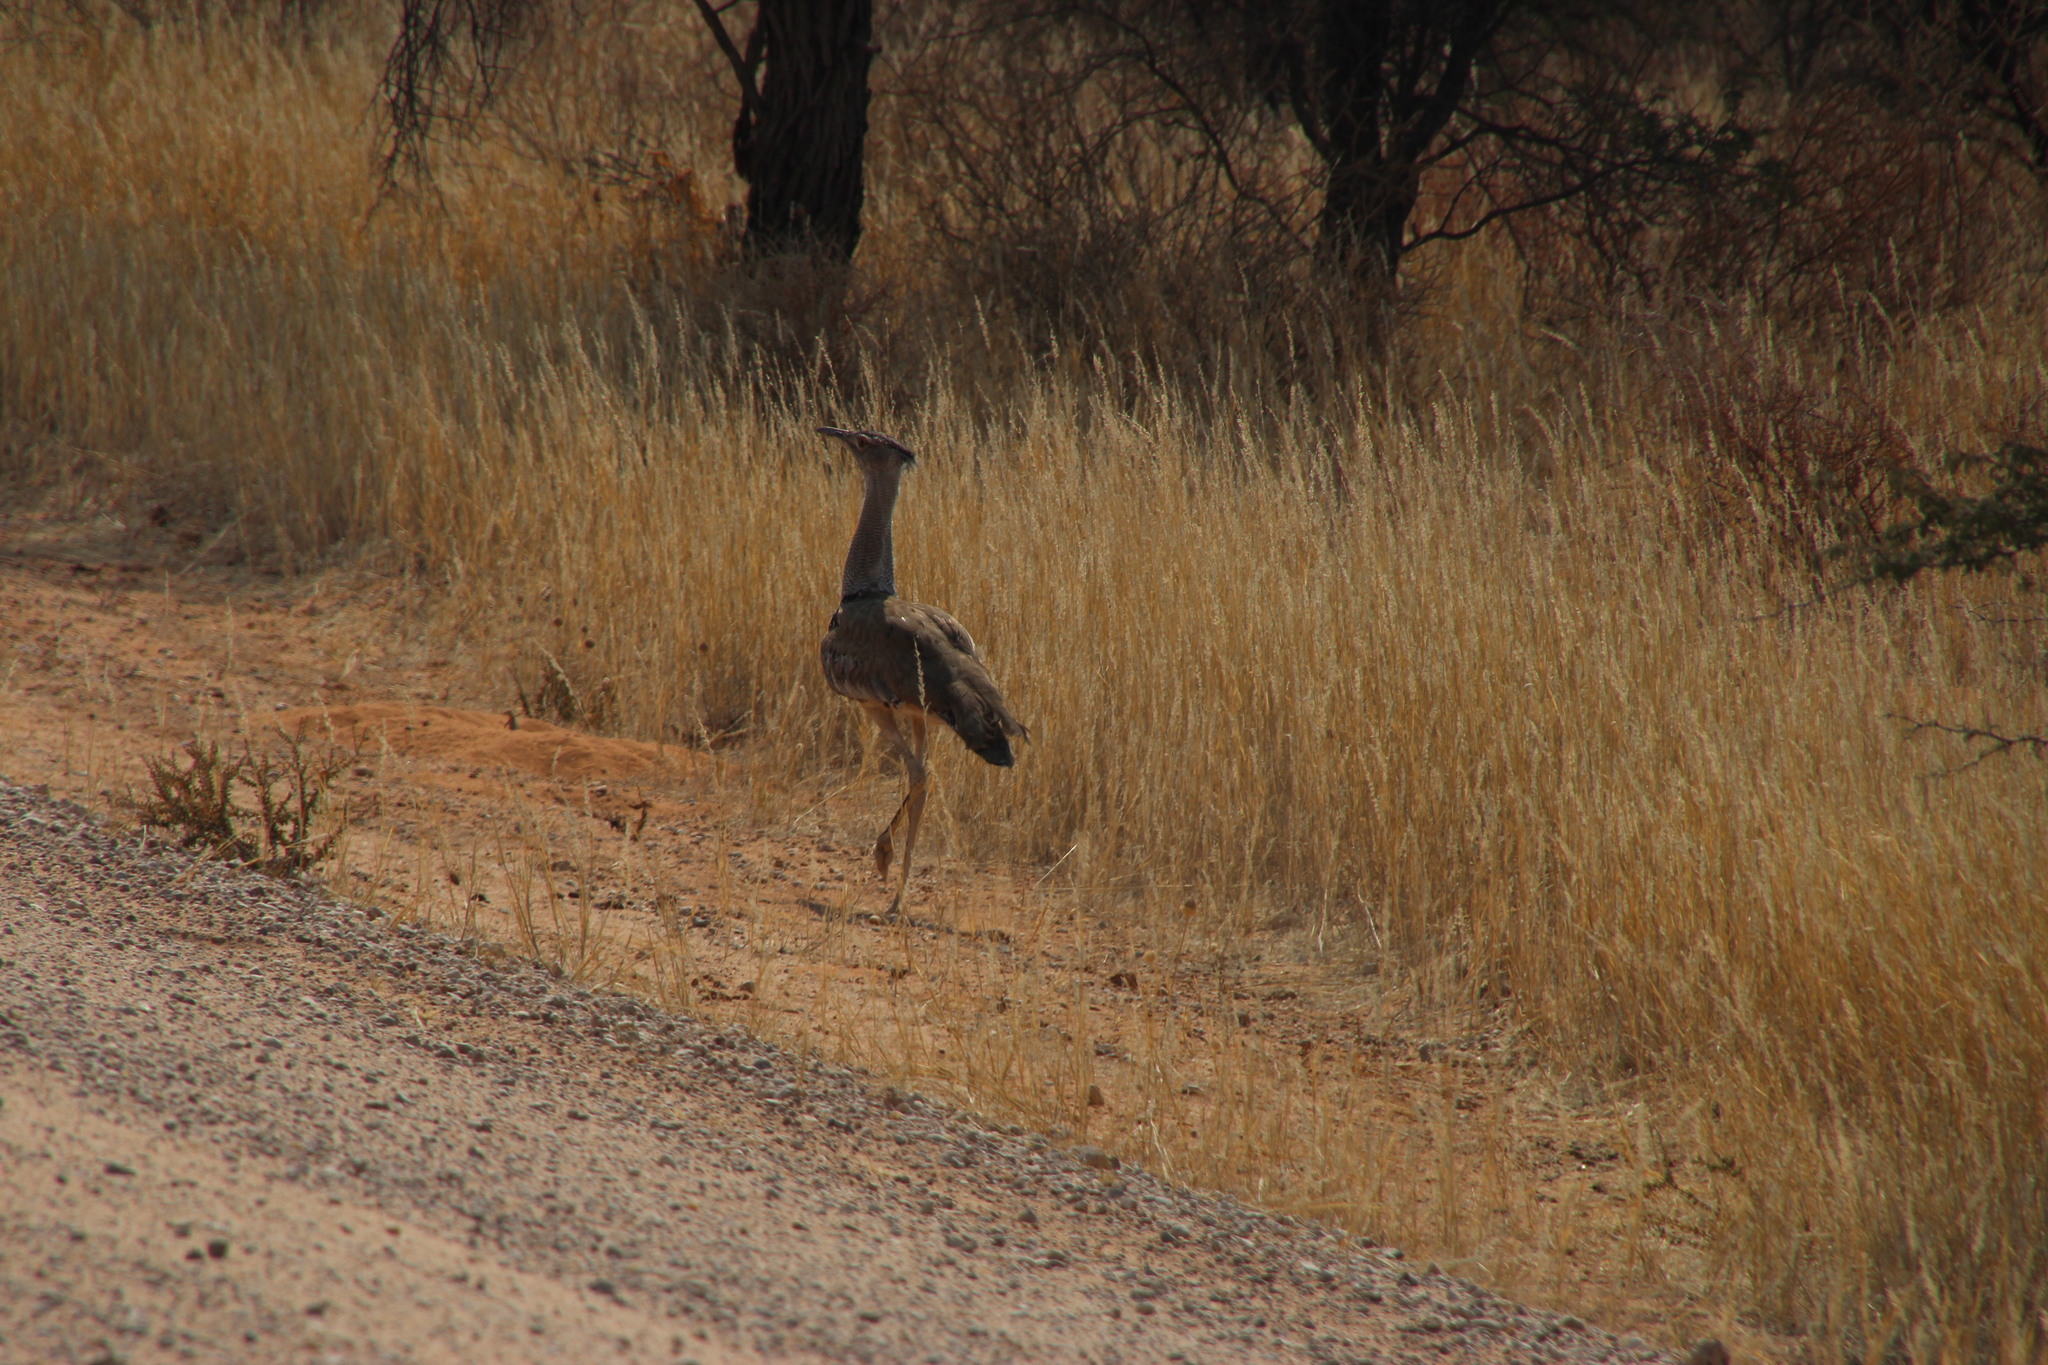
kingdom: Animalia
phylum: Chordata
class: Aves
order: Otidiformes
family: Otididae
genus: Ardeotis
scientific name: Ardeotis kori
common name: Kori bustard
